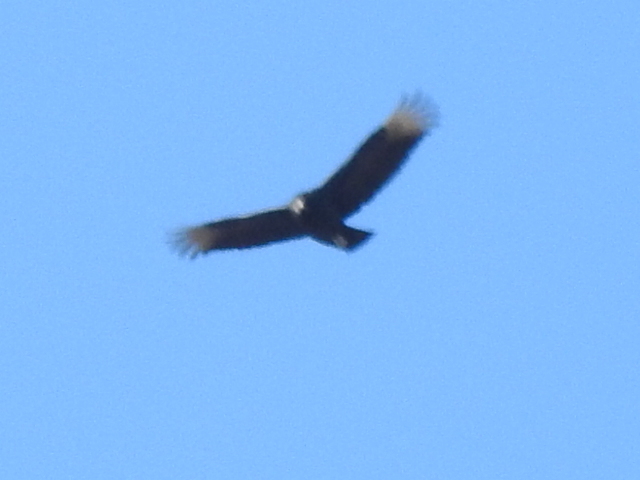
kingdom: Animalia
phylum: Chordata
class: Aves
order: Accipitriformes
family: Cathartidae
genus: Coragyps
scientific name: Coragyps atratus
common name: Black vulture
